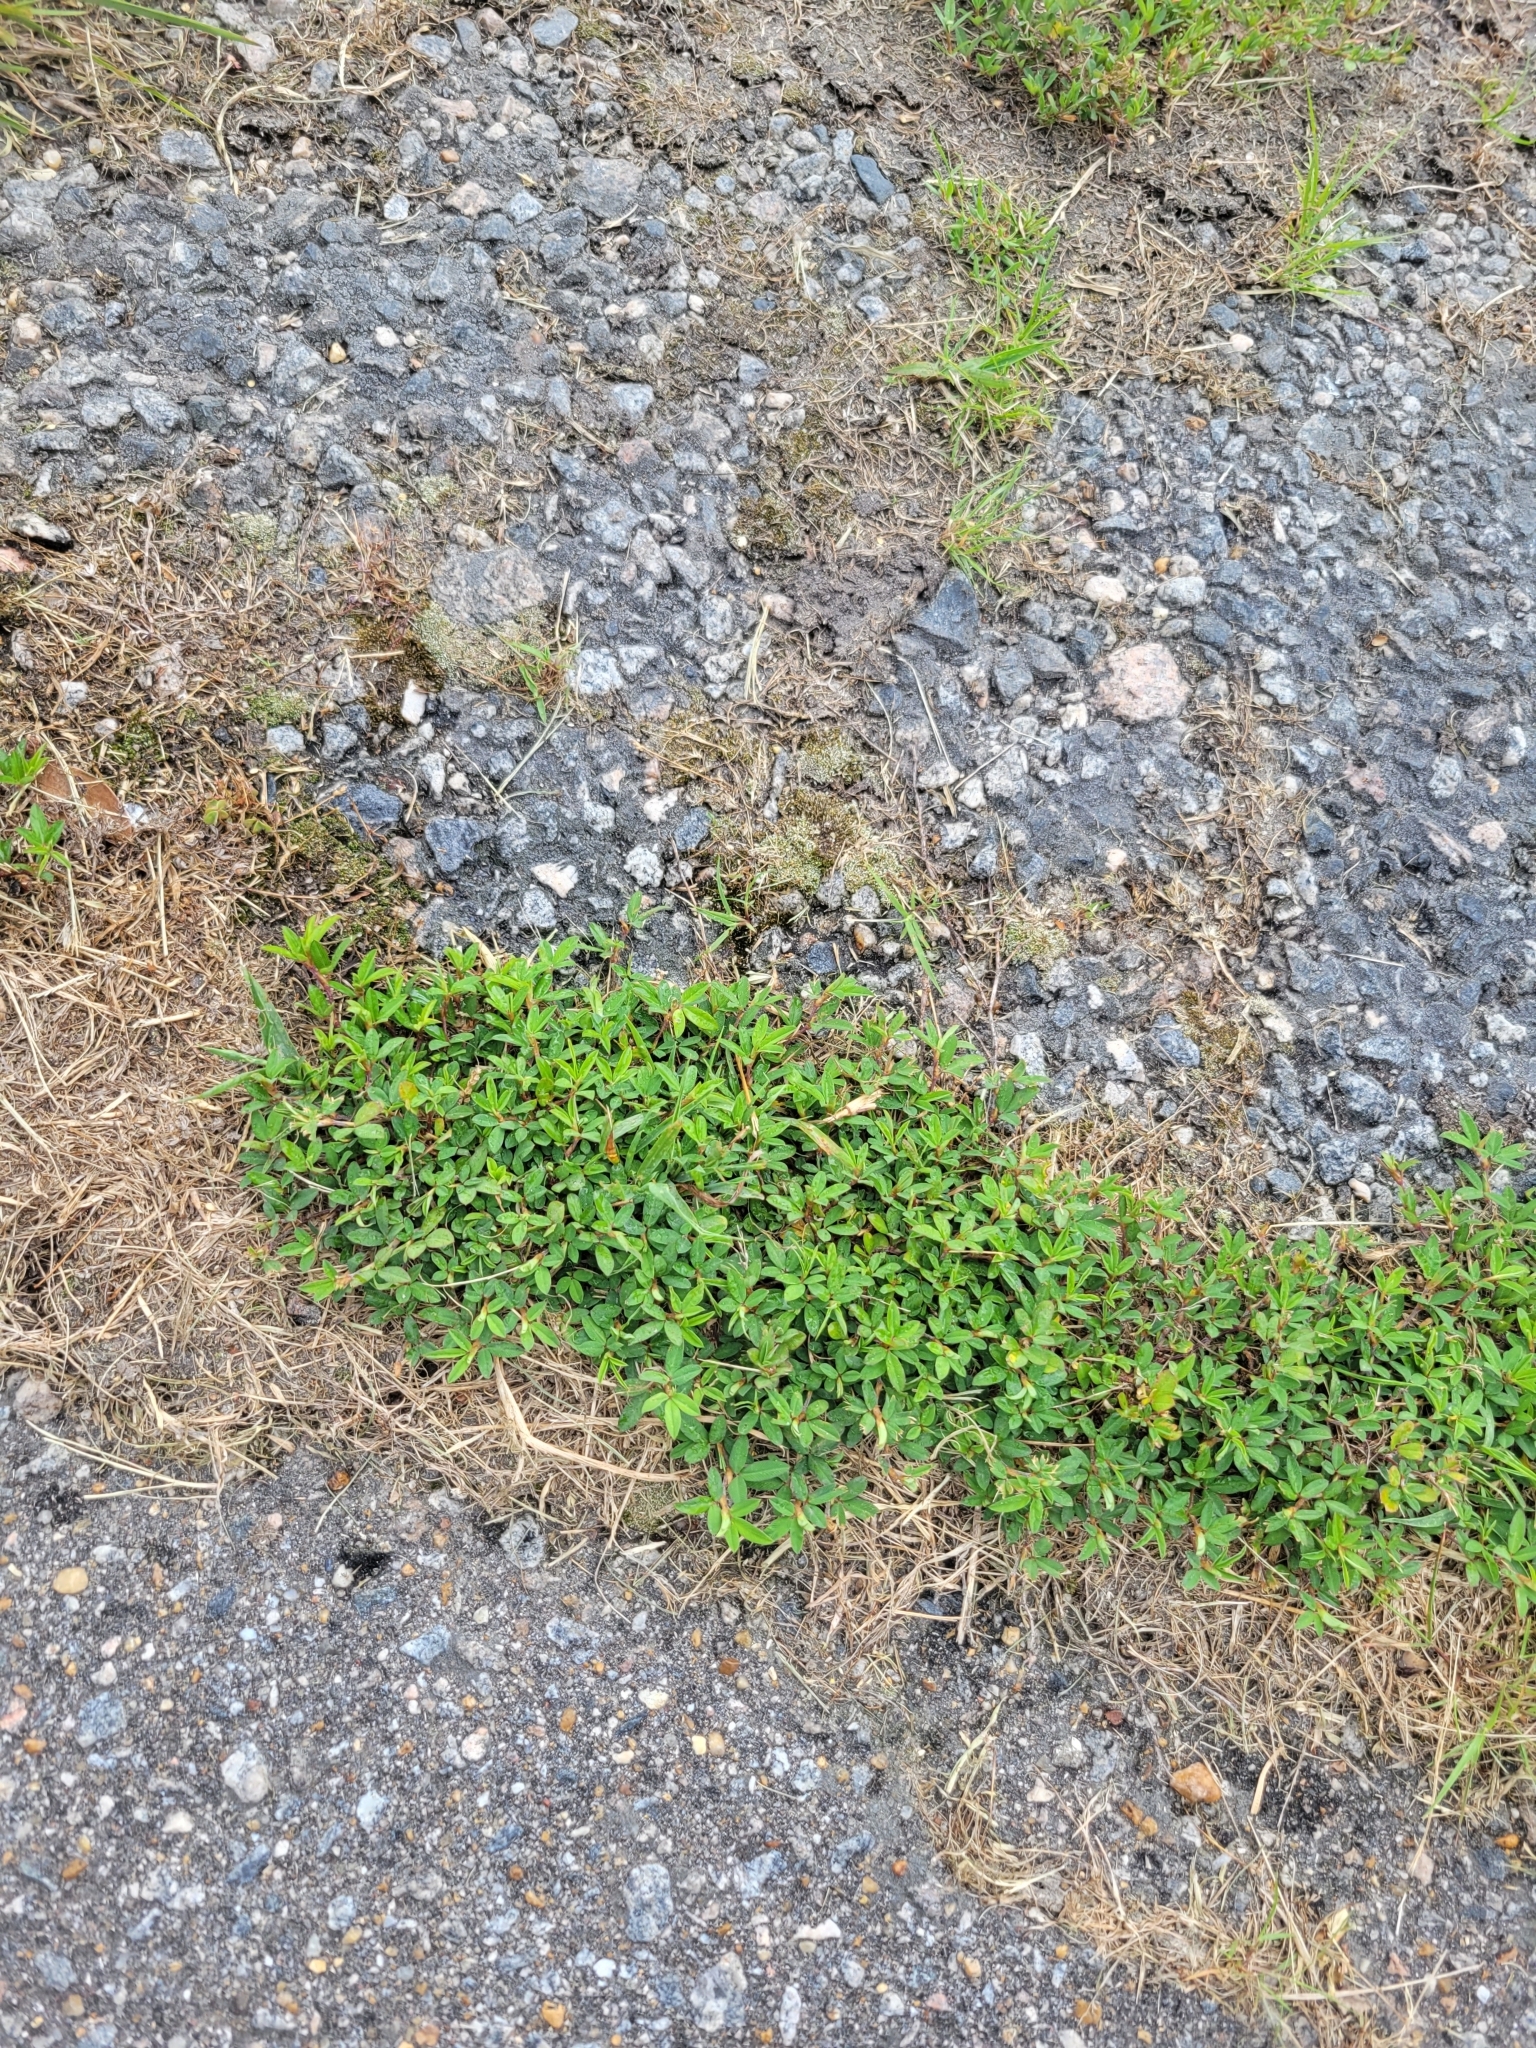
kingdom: Plantae
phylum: Tracheophyta
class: Magnoliopsida
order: Fabales
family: Fabaceae
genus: Kummerowia
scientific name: Kummerowia striata
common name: Japanese clover
